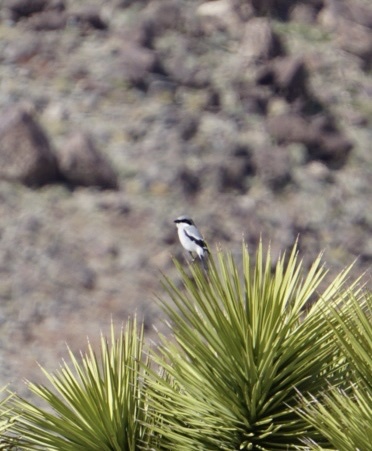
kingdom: Animalia
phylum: Chordata
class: Aves
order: Passeriformes
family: Laniidae
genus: Lanius
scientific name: Lanius ludovicianus
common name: Loggerhead shrike
